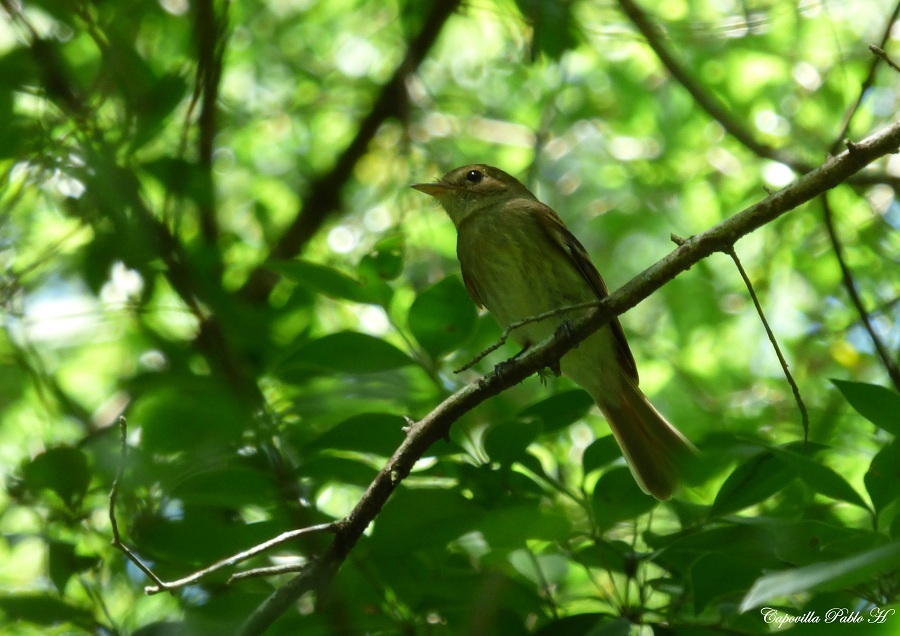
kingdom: Animalia
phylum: Chordata
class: Aves
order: Passeriformes
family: Tyrannidae
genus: Lathrotriccus
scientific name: Lathrotriccus euleri
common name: Euler's flycatcher
